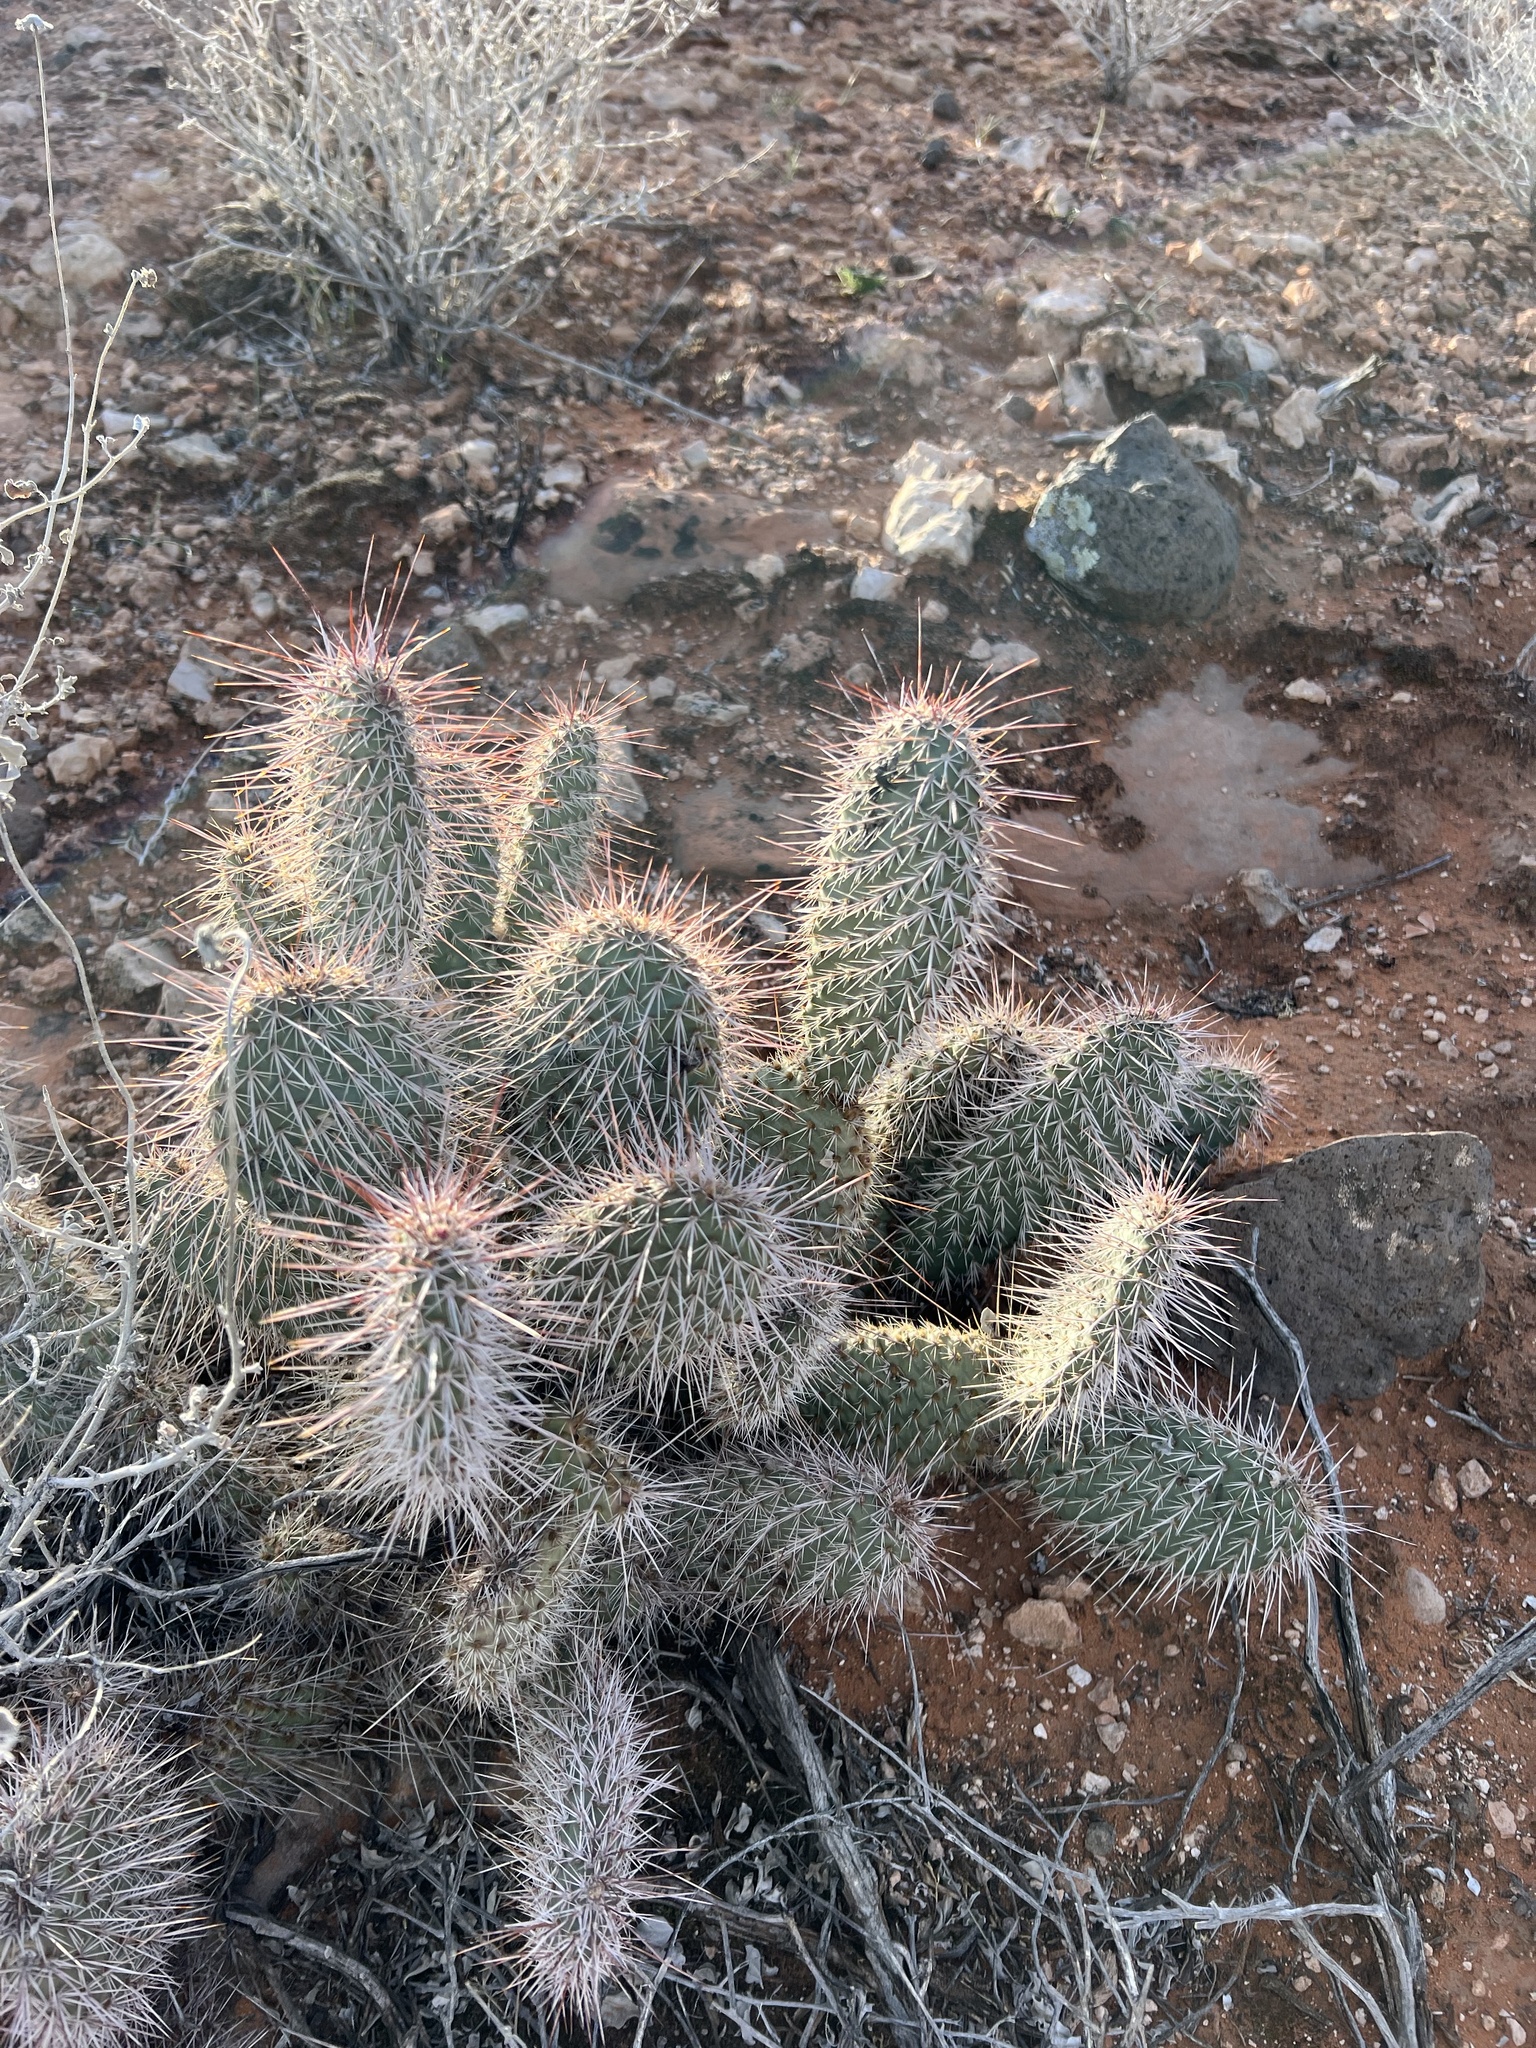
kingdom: Plantae
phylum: Tracheophyta
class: Magnoliopsida
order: Caryophyllales
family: Cactaceae
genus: Opuntia
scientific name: Opuntia polyacantha
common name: Plains prickly-pear
